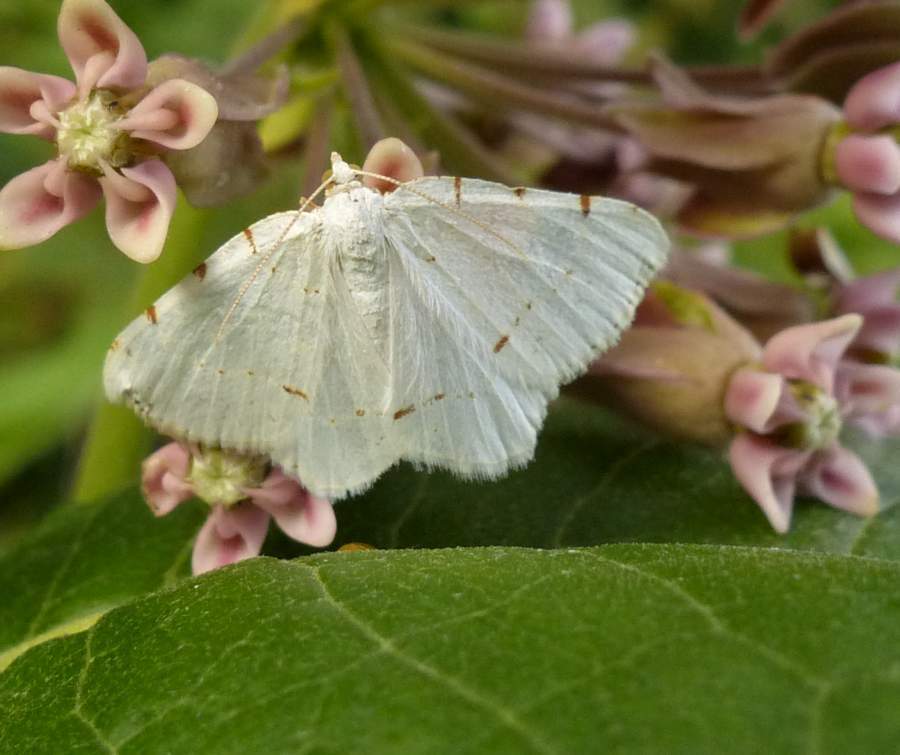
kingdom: Animalia
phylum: Arthropoda
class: Insecta
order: Lepidoptera
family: Geometridae
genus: Macaria
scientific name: Macaria pustularia
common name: Lesser maple spanworm moth
